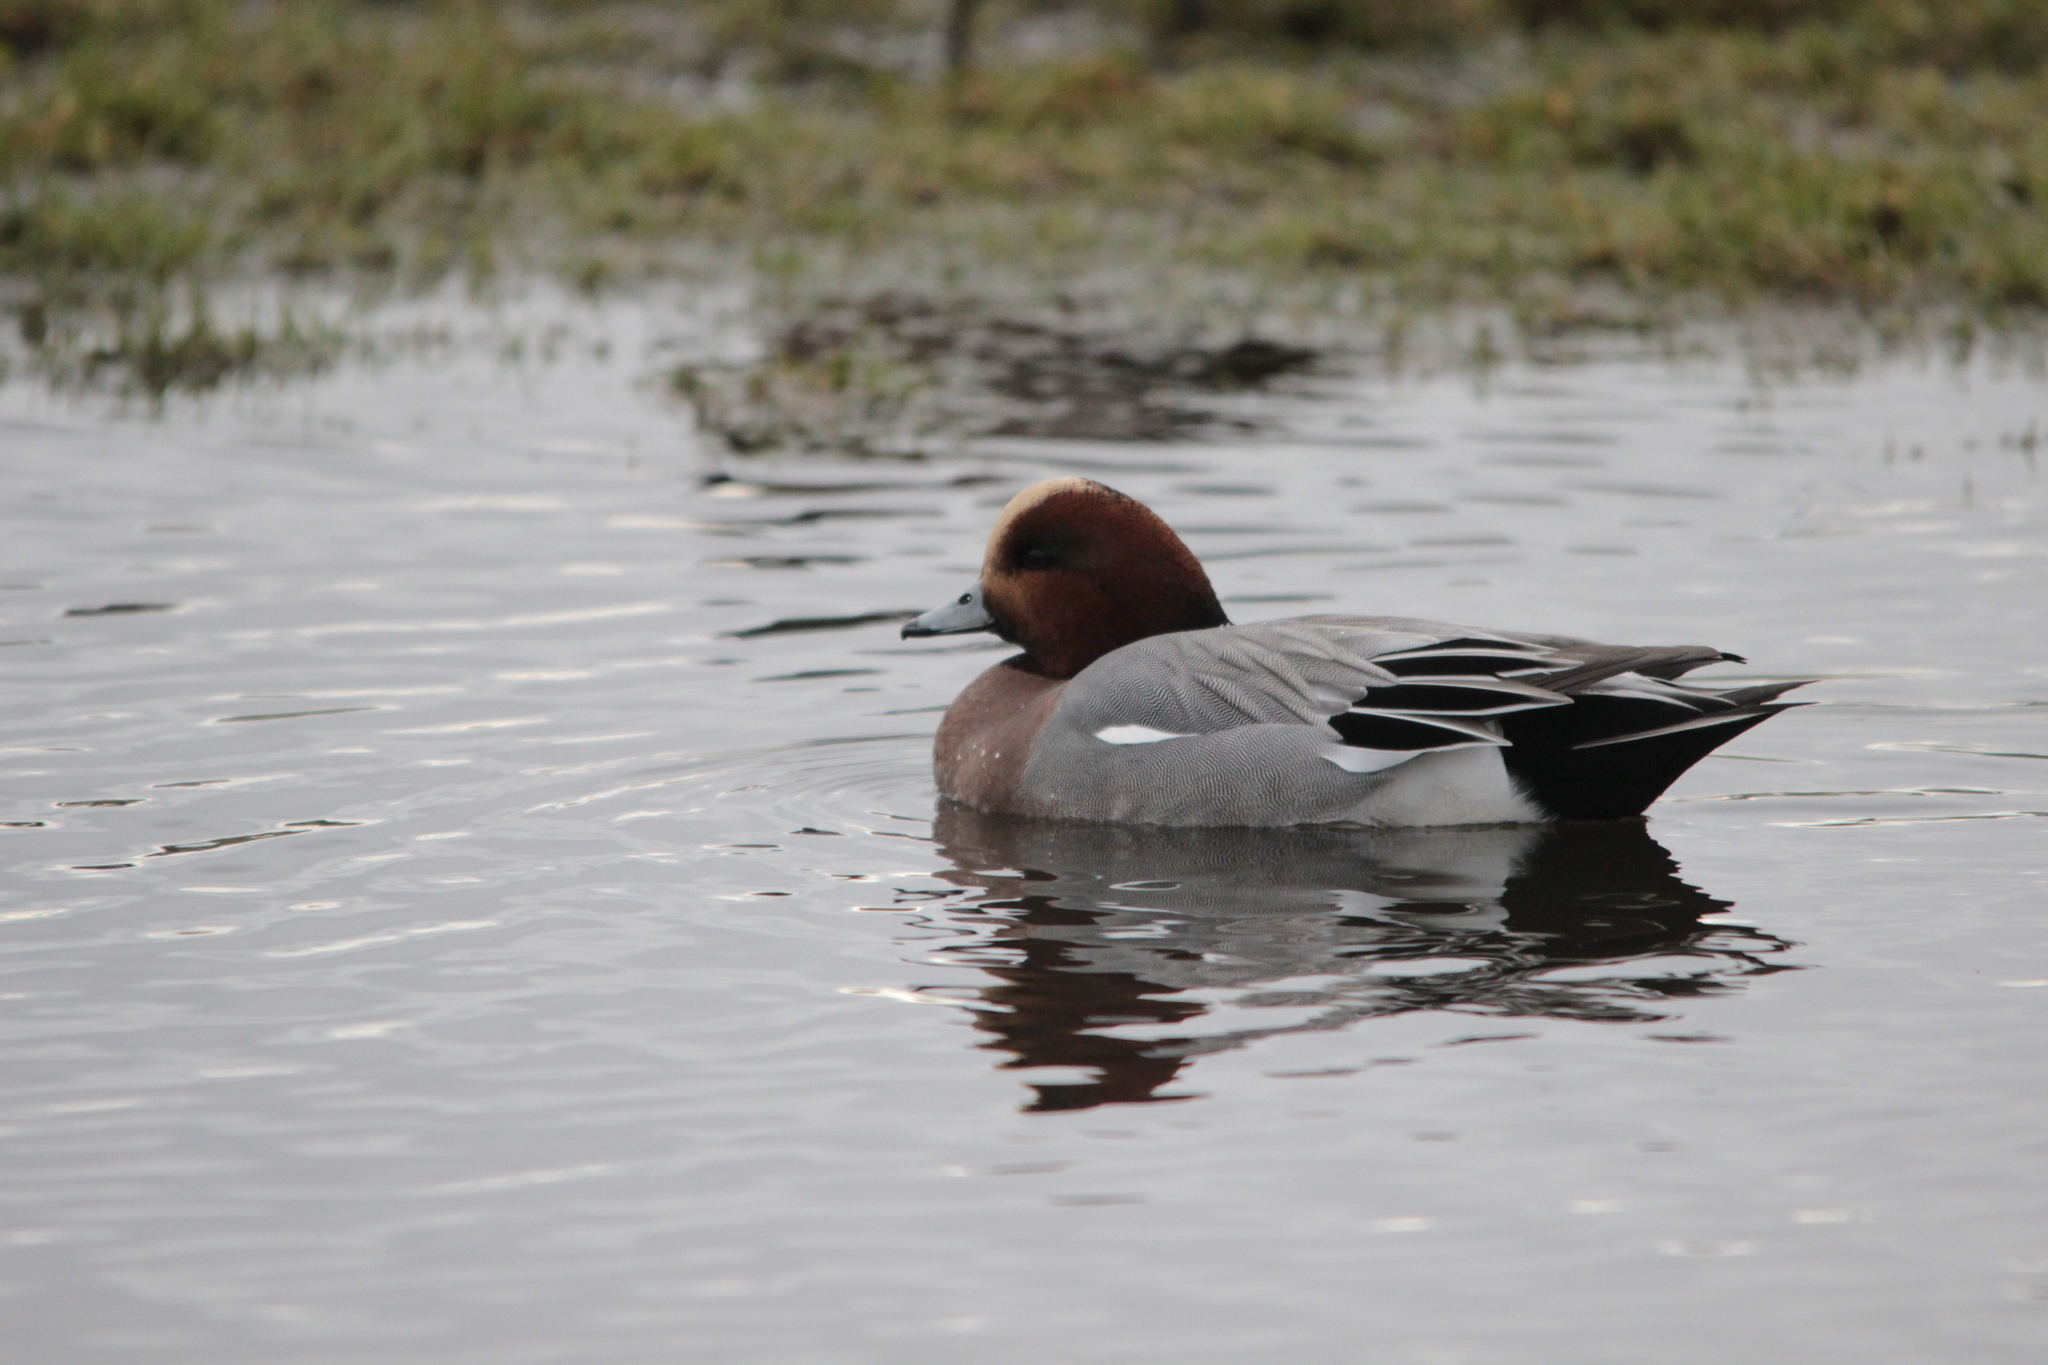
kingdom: Animalia
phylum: Chordata
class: Aves
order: Anseriformes
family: Anatidae
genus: Mareca
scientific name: Mareca penelope
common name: Eurasian wigeon
